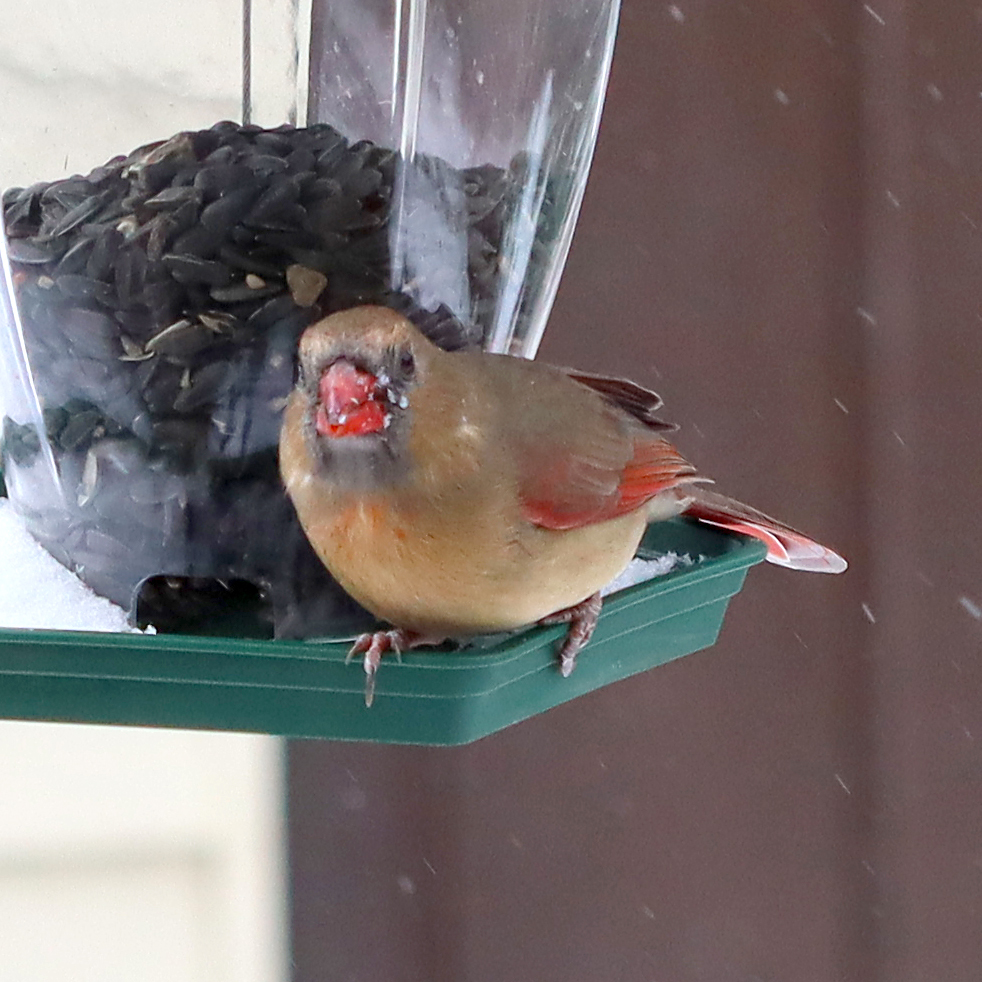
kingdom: Animalia
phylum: Chordata
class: Aves
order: Passeriformes
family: Cardinalidae
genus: Cardinalis
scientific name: Cardinalis cardinalis
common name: Northern cardinal
